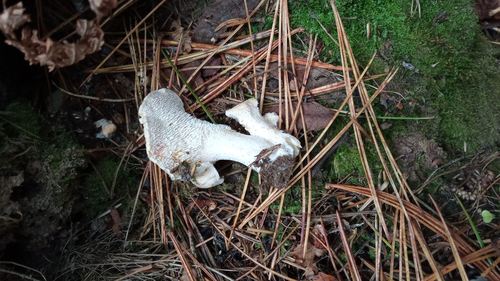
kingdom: Fungi
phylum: Basidiomycota
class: Agaricomycetes
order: Cantharellales
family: Hydnaceae
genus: Hydnum
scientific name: Hydnum repandum
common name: Wood hedgehog
